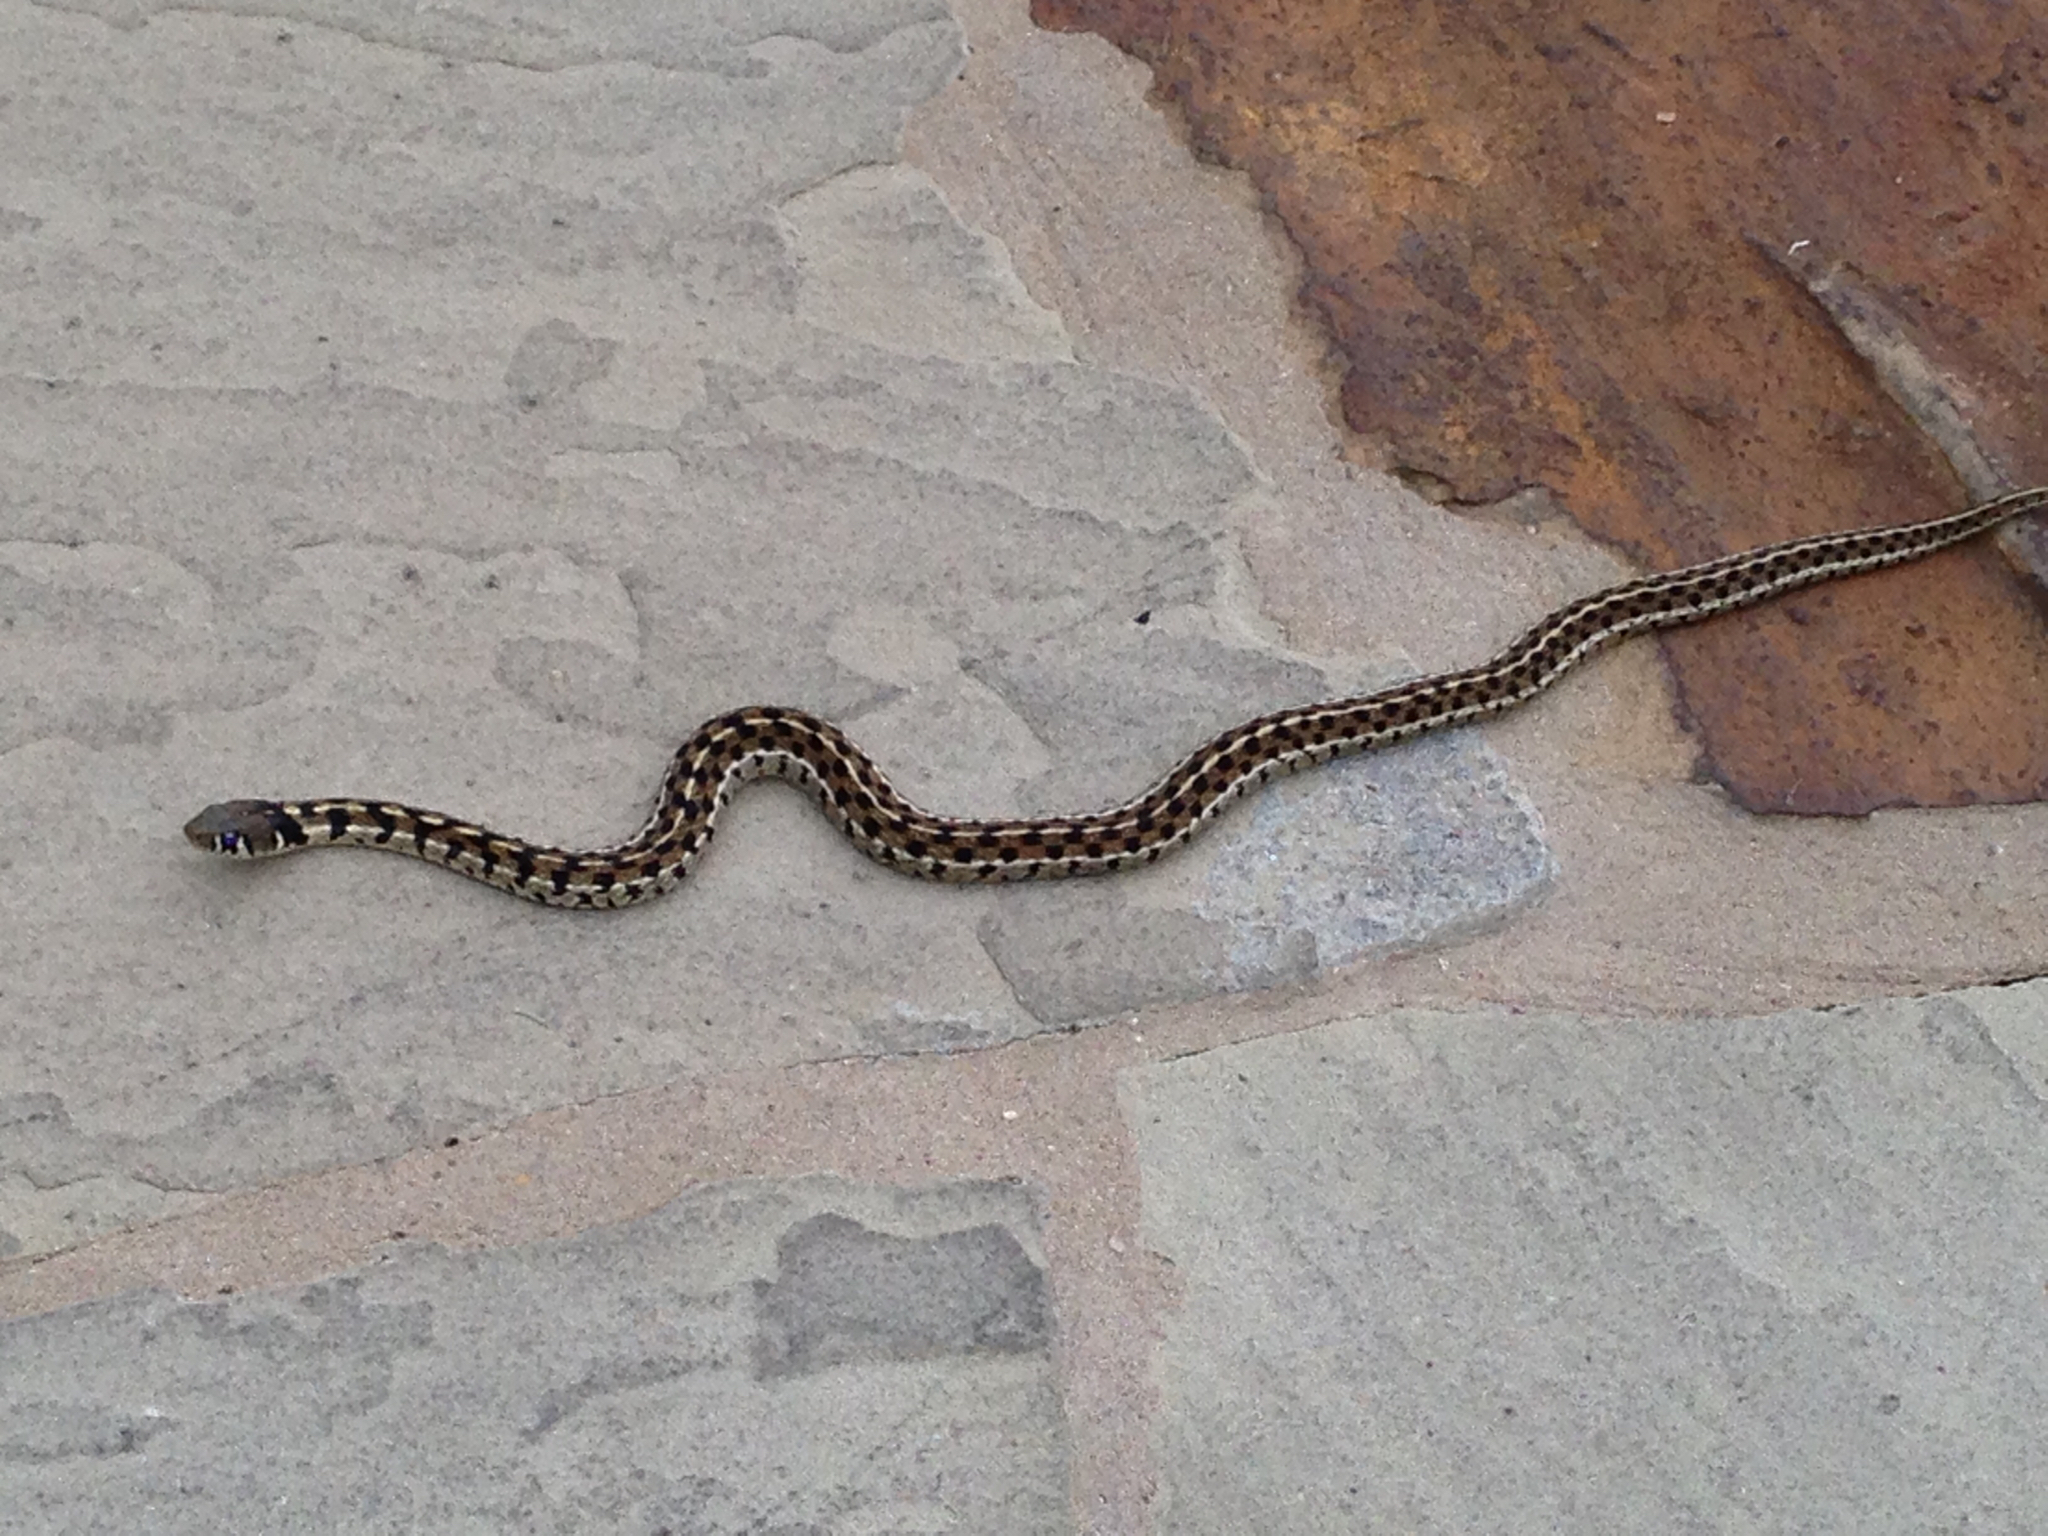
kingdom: Animalia
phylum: Chordata
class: Squamata
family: Colubridae
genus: Thamnophis
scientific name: Thamnophis marcianus
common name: Checkered garter snake
